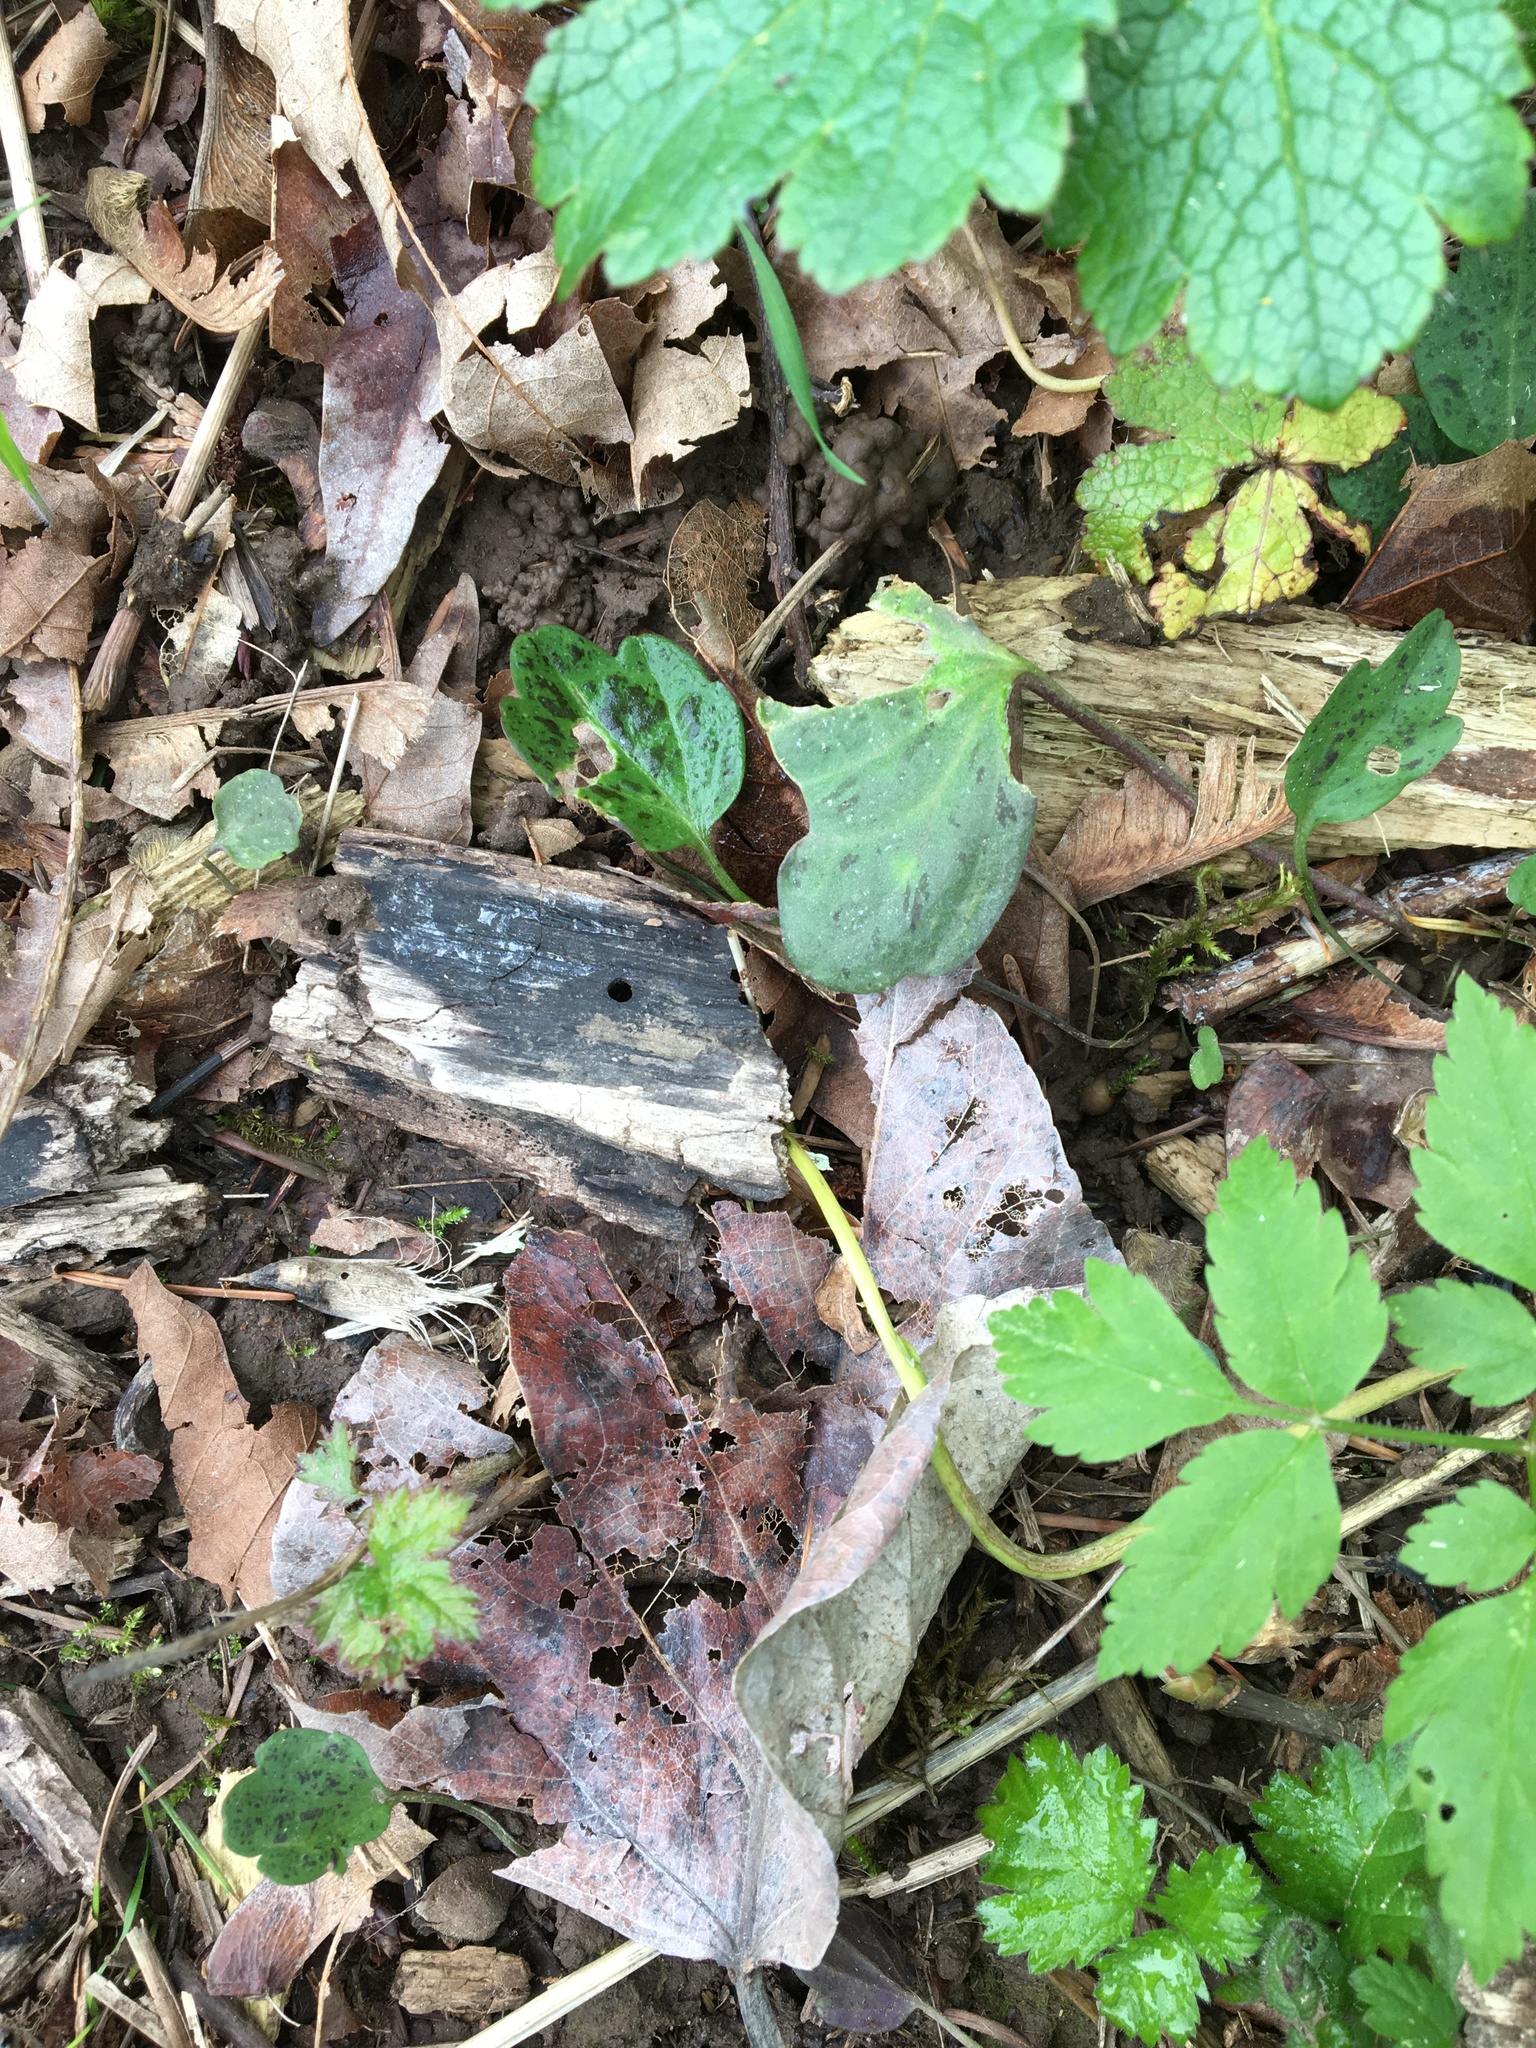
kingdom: Plantae
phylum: Tracheophyta
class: Magnoliopsida
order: Brassicales
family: Brassicaceae
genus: Cardamine
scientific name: Cardamine nuttallii
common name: Nuttall's toothwort
